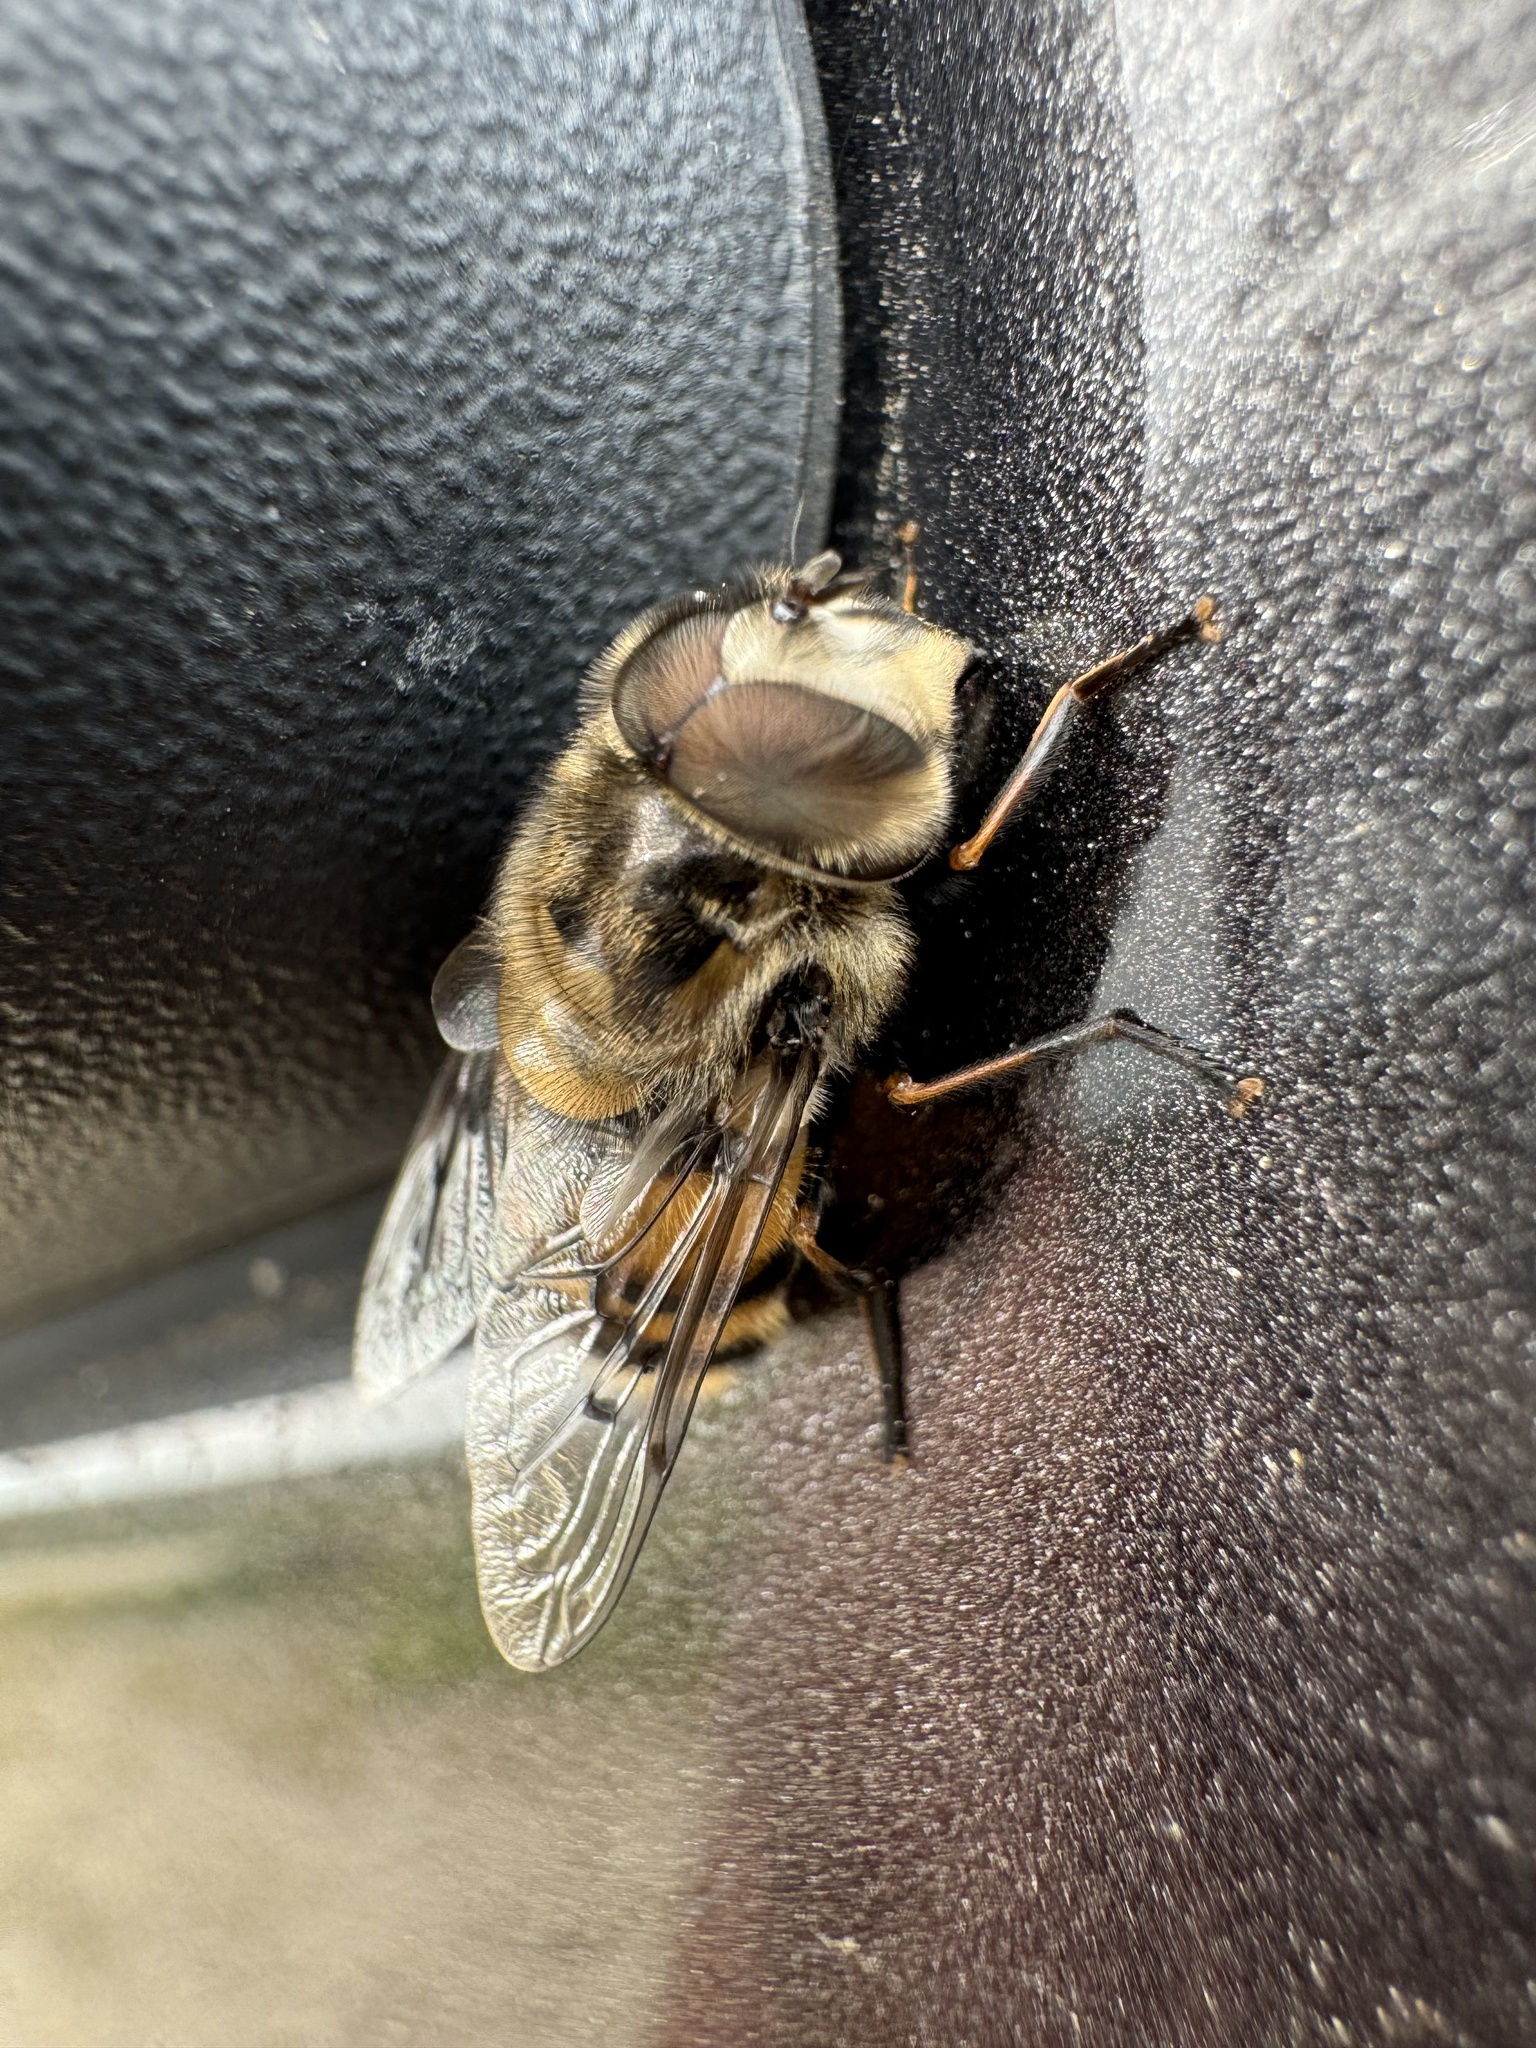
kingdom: Animalia
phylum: Arthropoda
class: Insecta
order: Diptera
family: Syrphidae
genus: Copestylum
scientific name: Copestylum avidum
